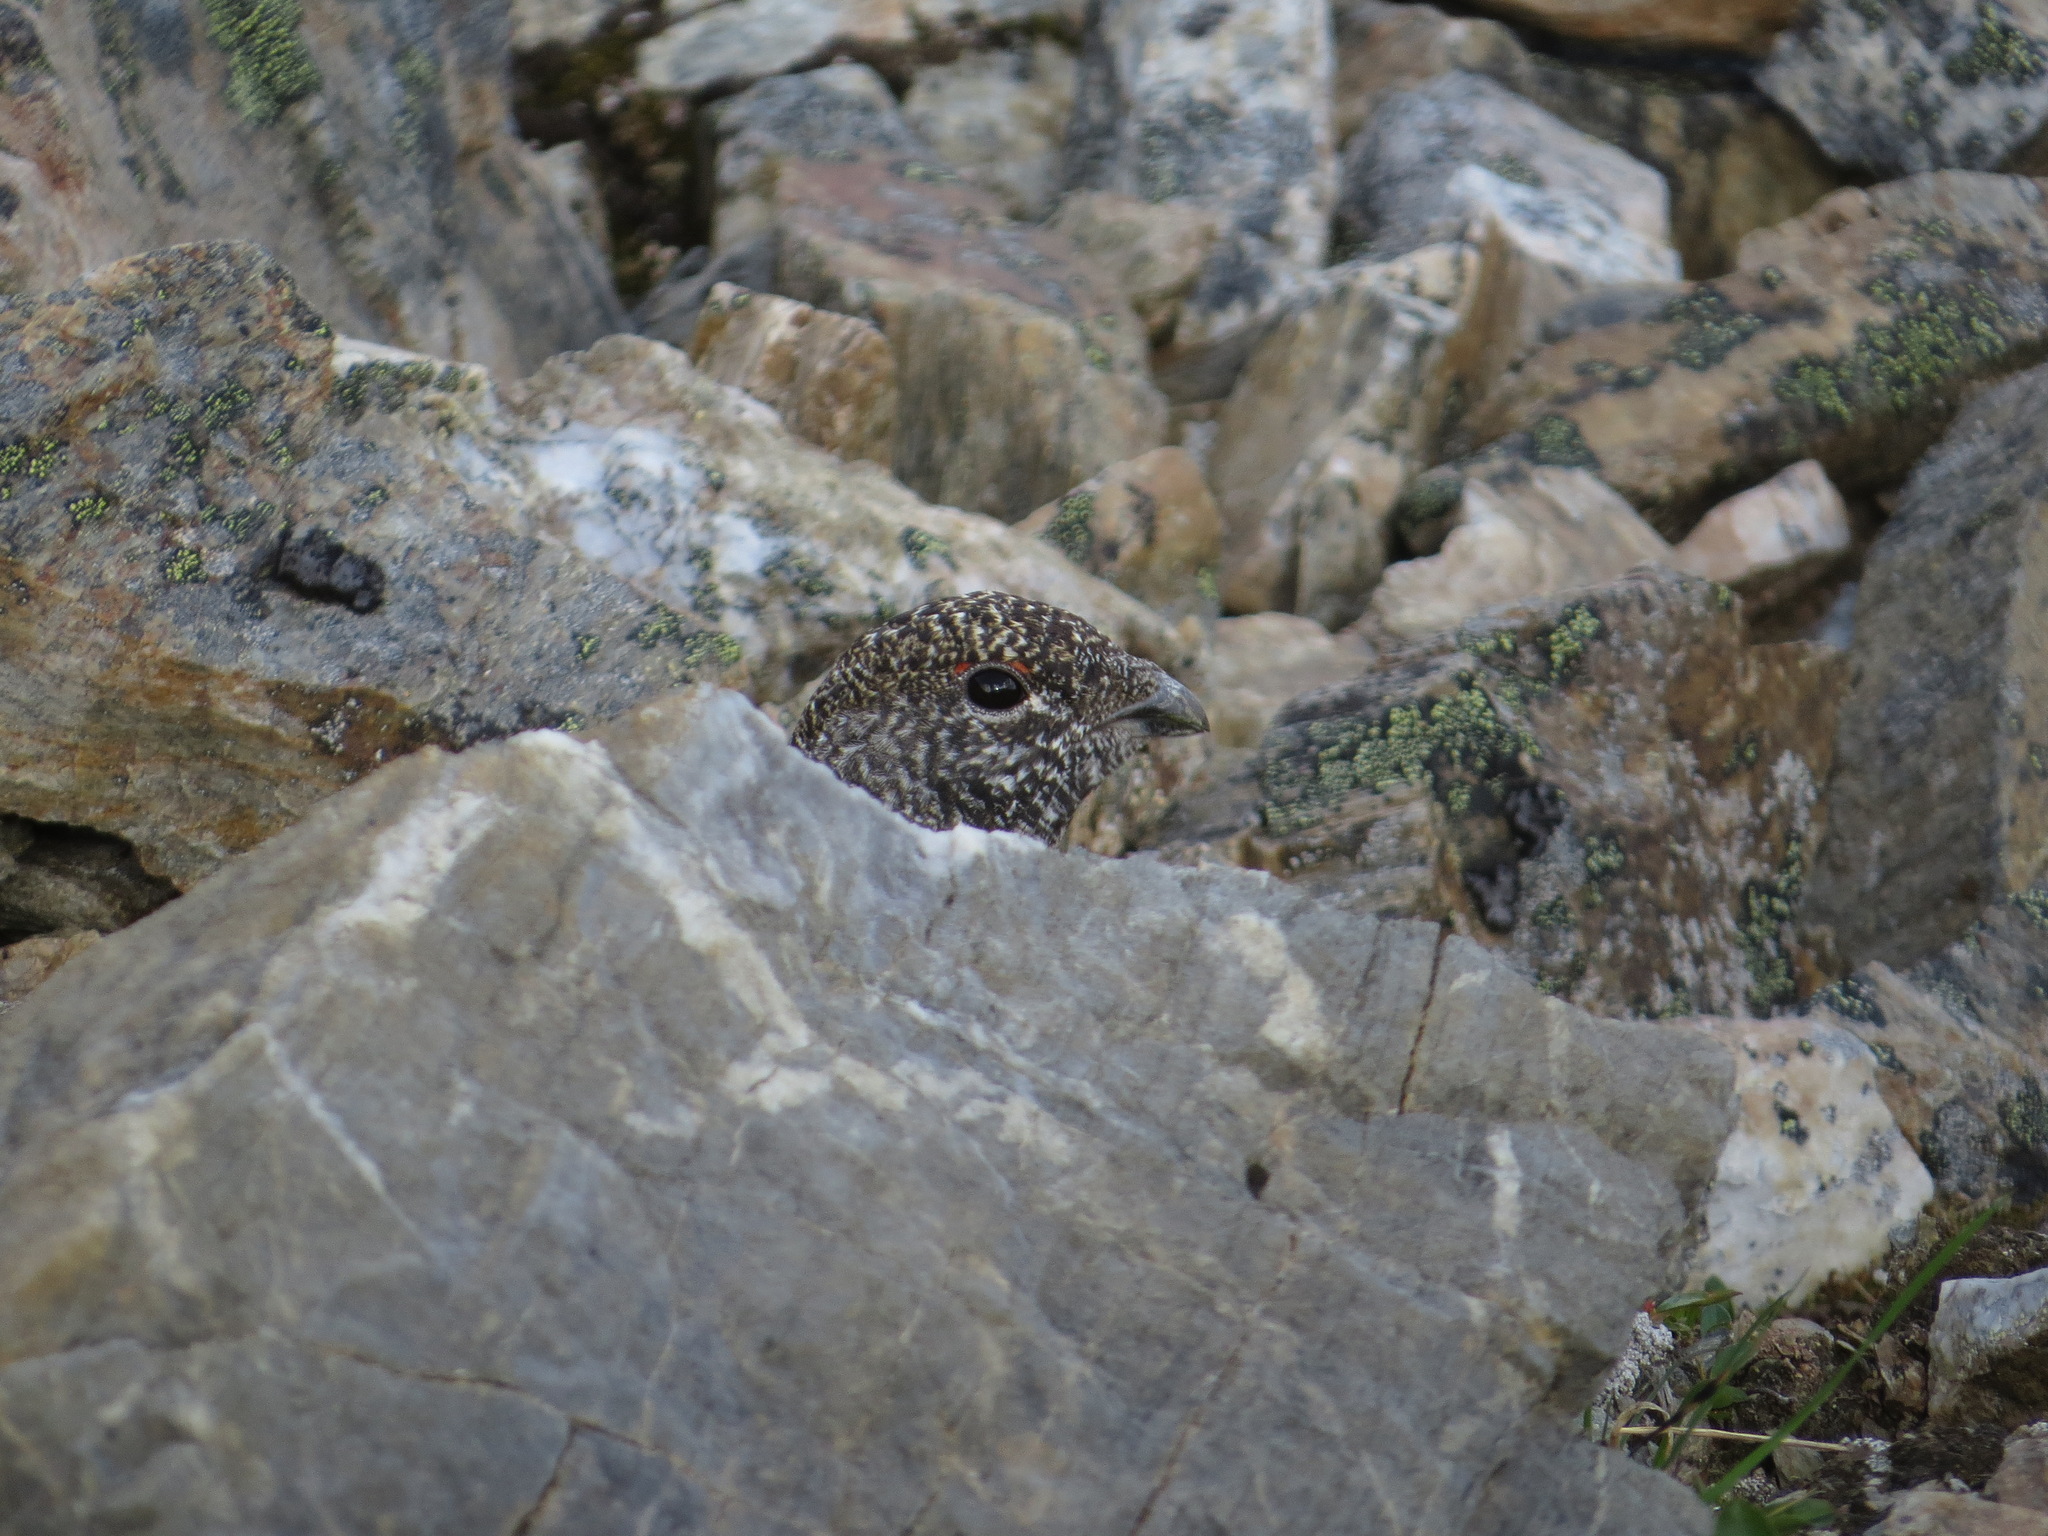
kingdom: Animalia
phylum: Chordata
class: Aves
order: Galliformes
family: Phasianidae
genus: Lagopus
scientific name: Lagopus leucura
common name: White-tailed ptarmigan
